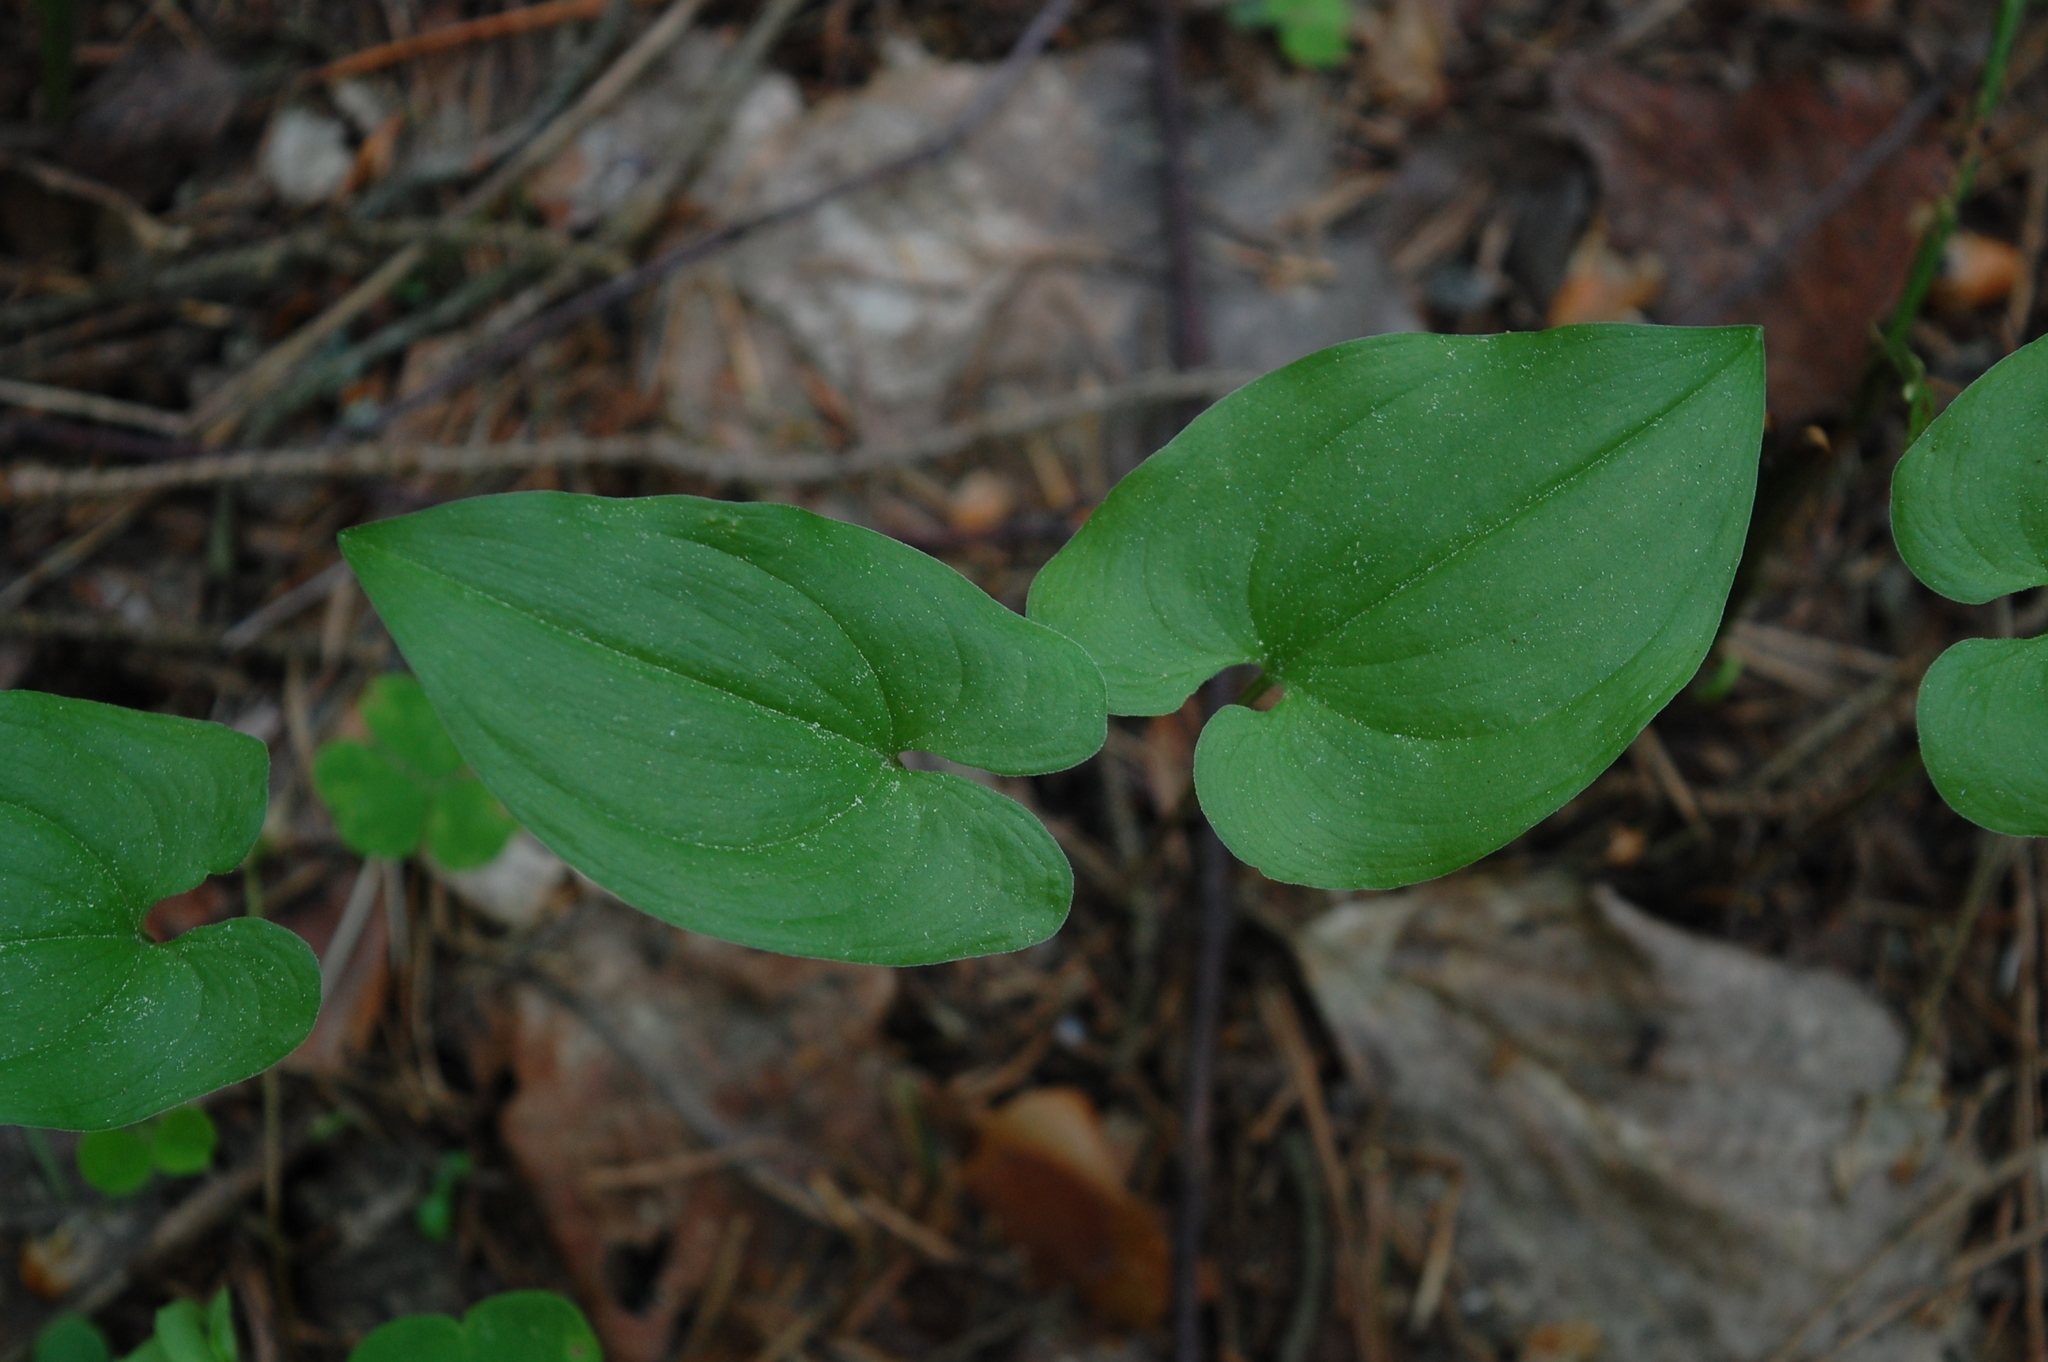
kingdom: Plantae
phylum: Tracheophyta
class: Liliopsida
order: Asparagales
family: Asparagaceae
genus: Maianthemum
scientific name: Maianthemum bifolium
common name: May lily
